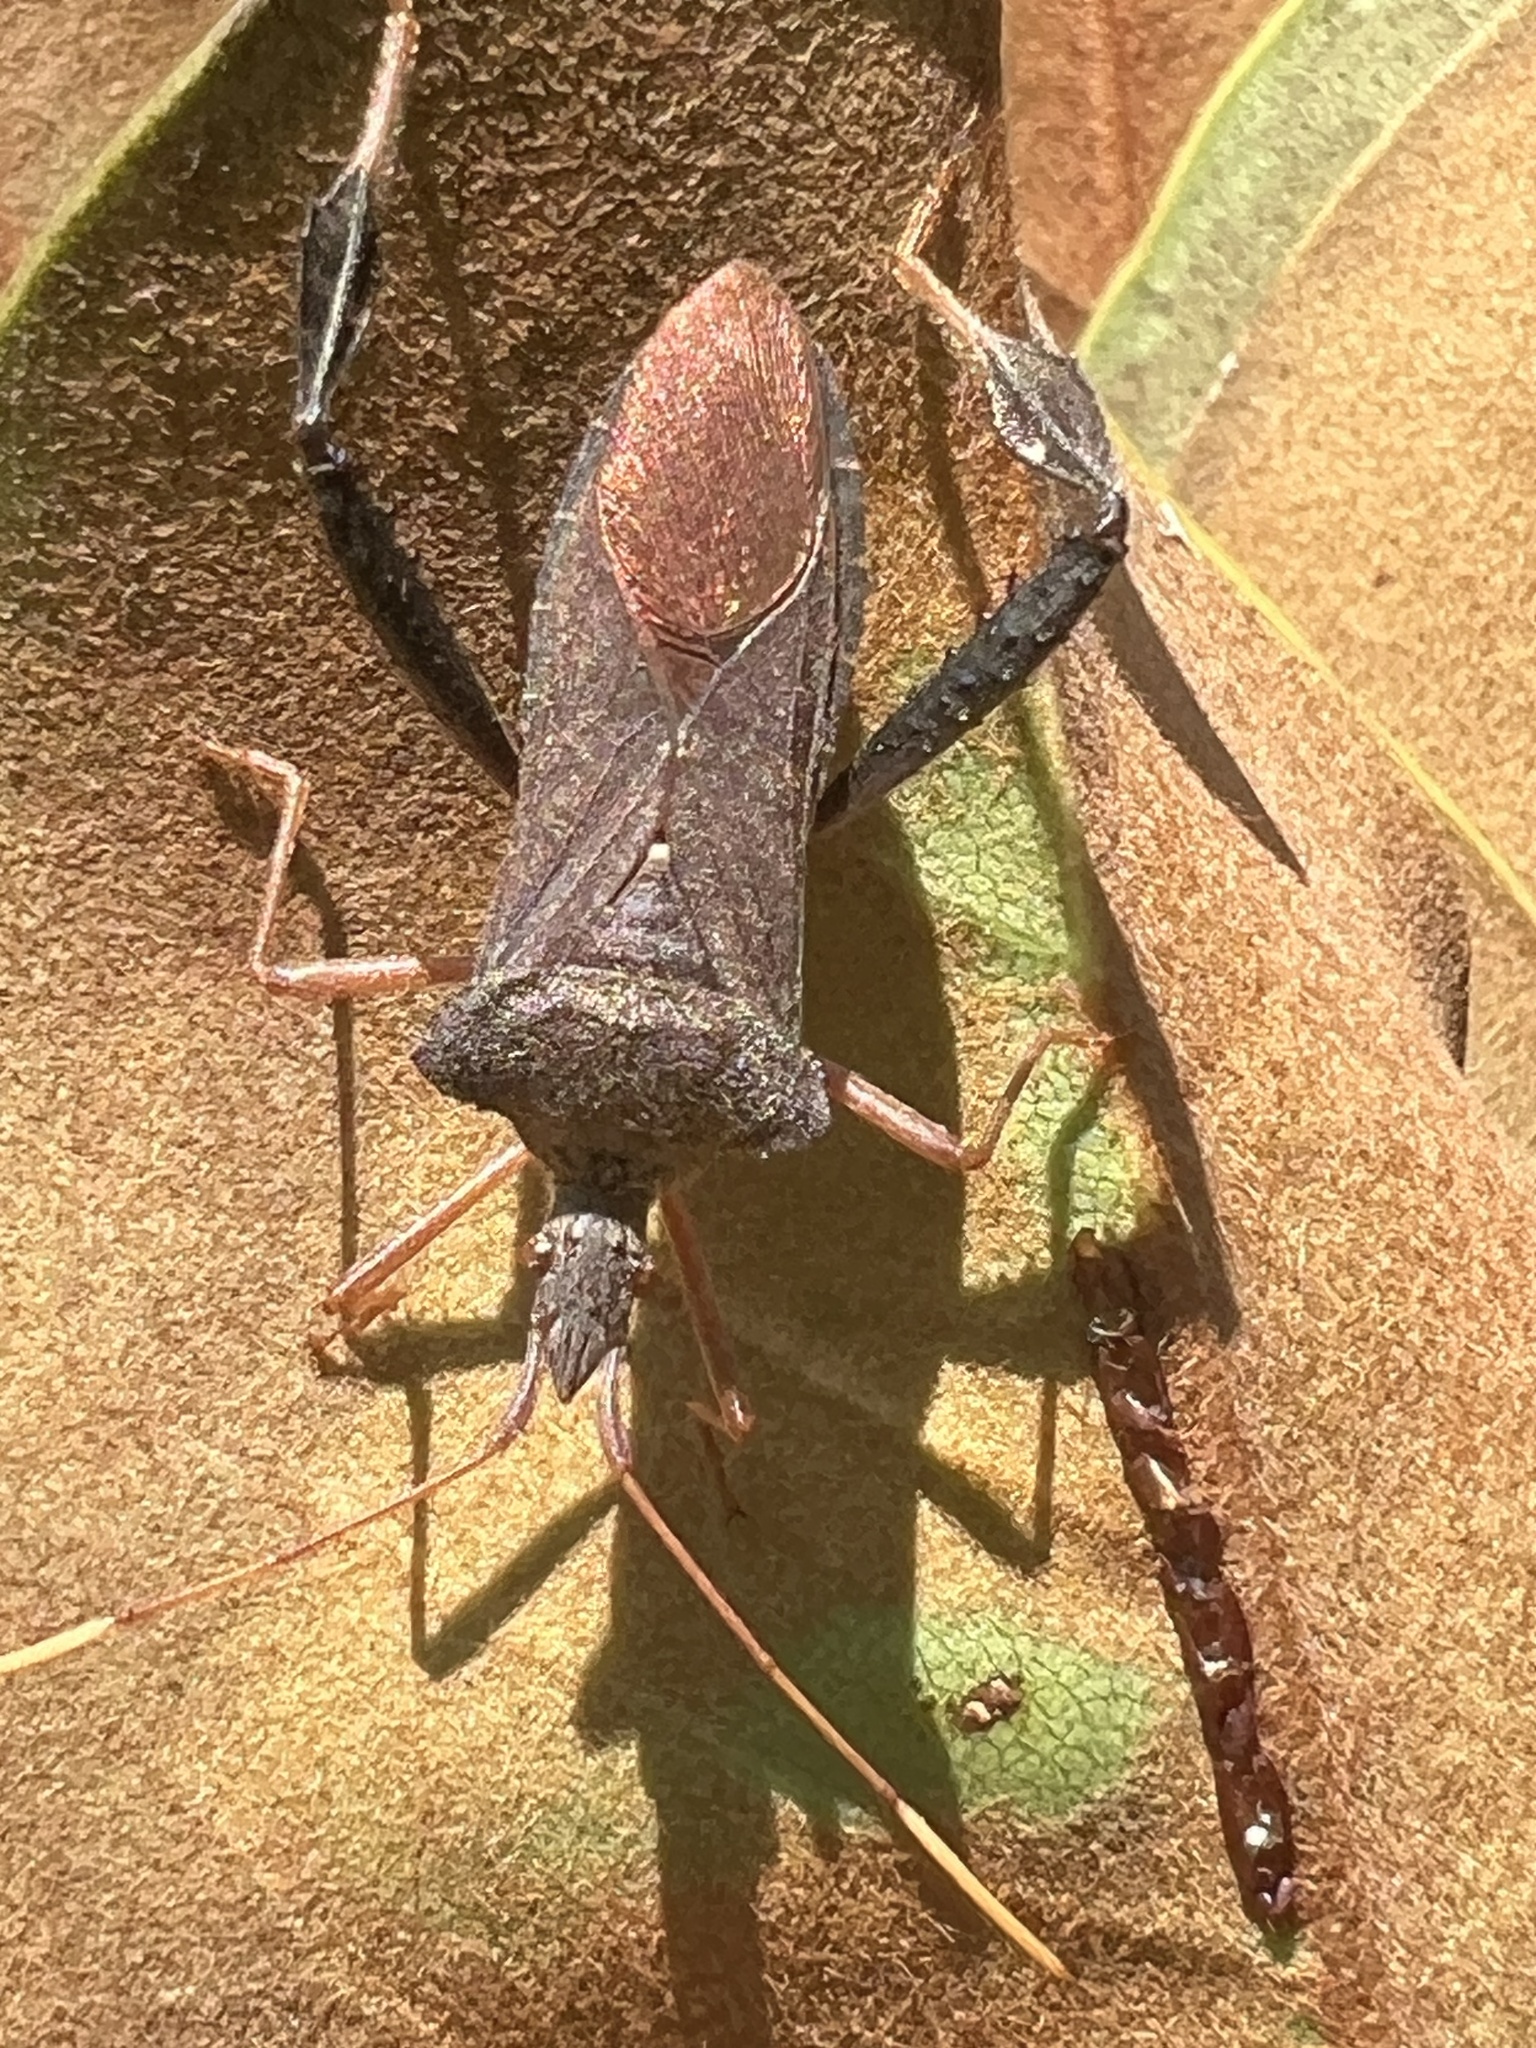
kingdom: Animalia
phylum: Arthropoda
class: Insecta
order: Hemiptera
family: Coreidae
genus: Leptoglossus
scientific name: Leptoglossus fulvicornis
